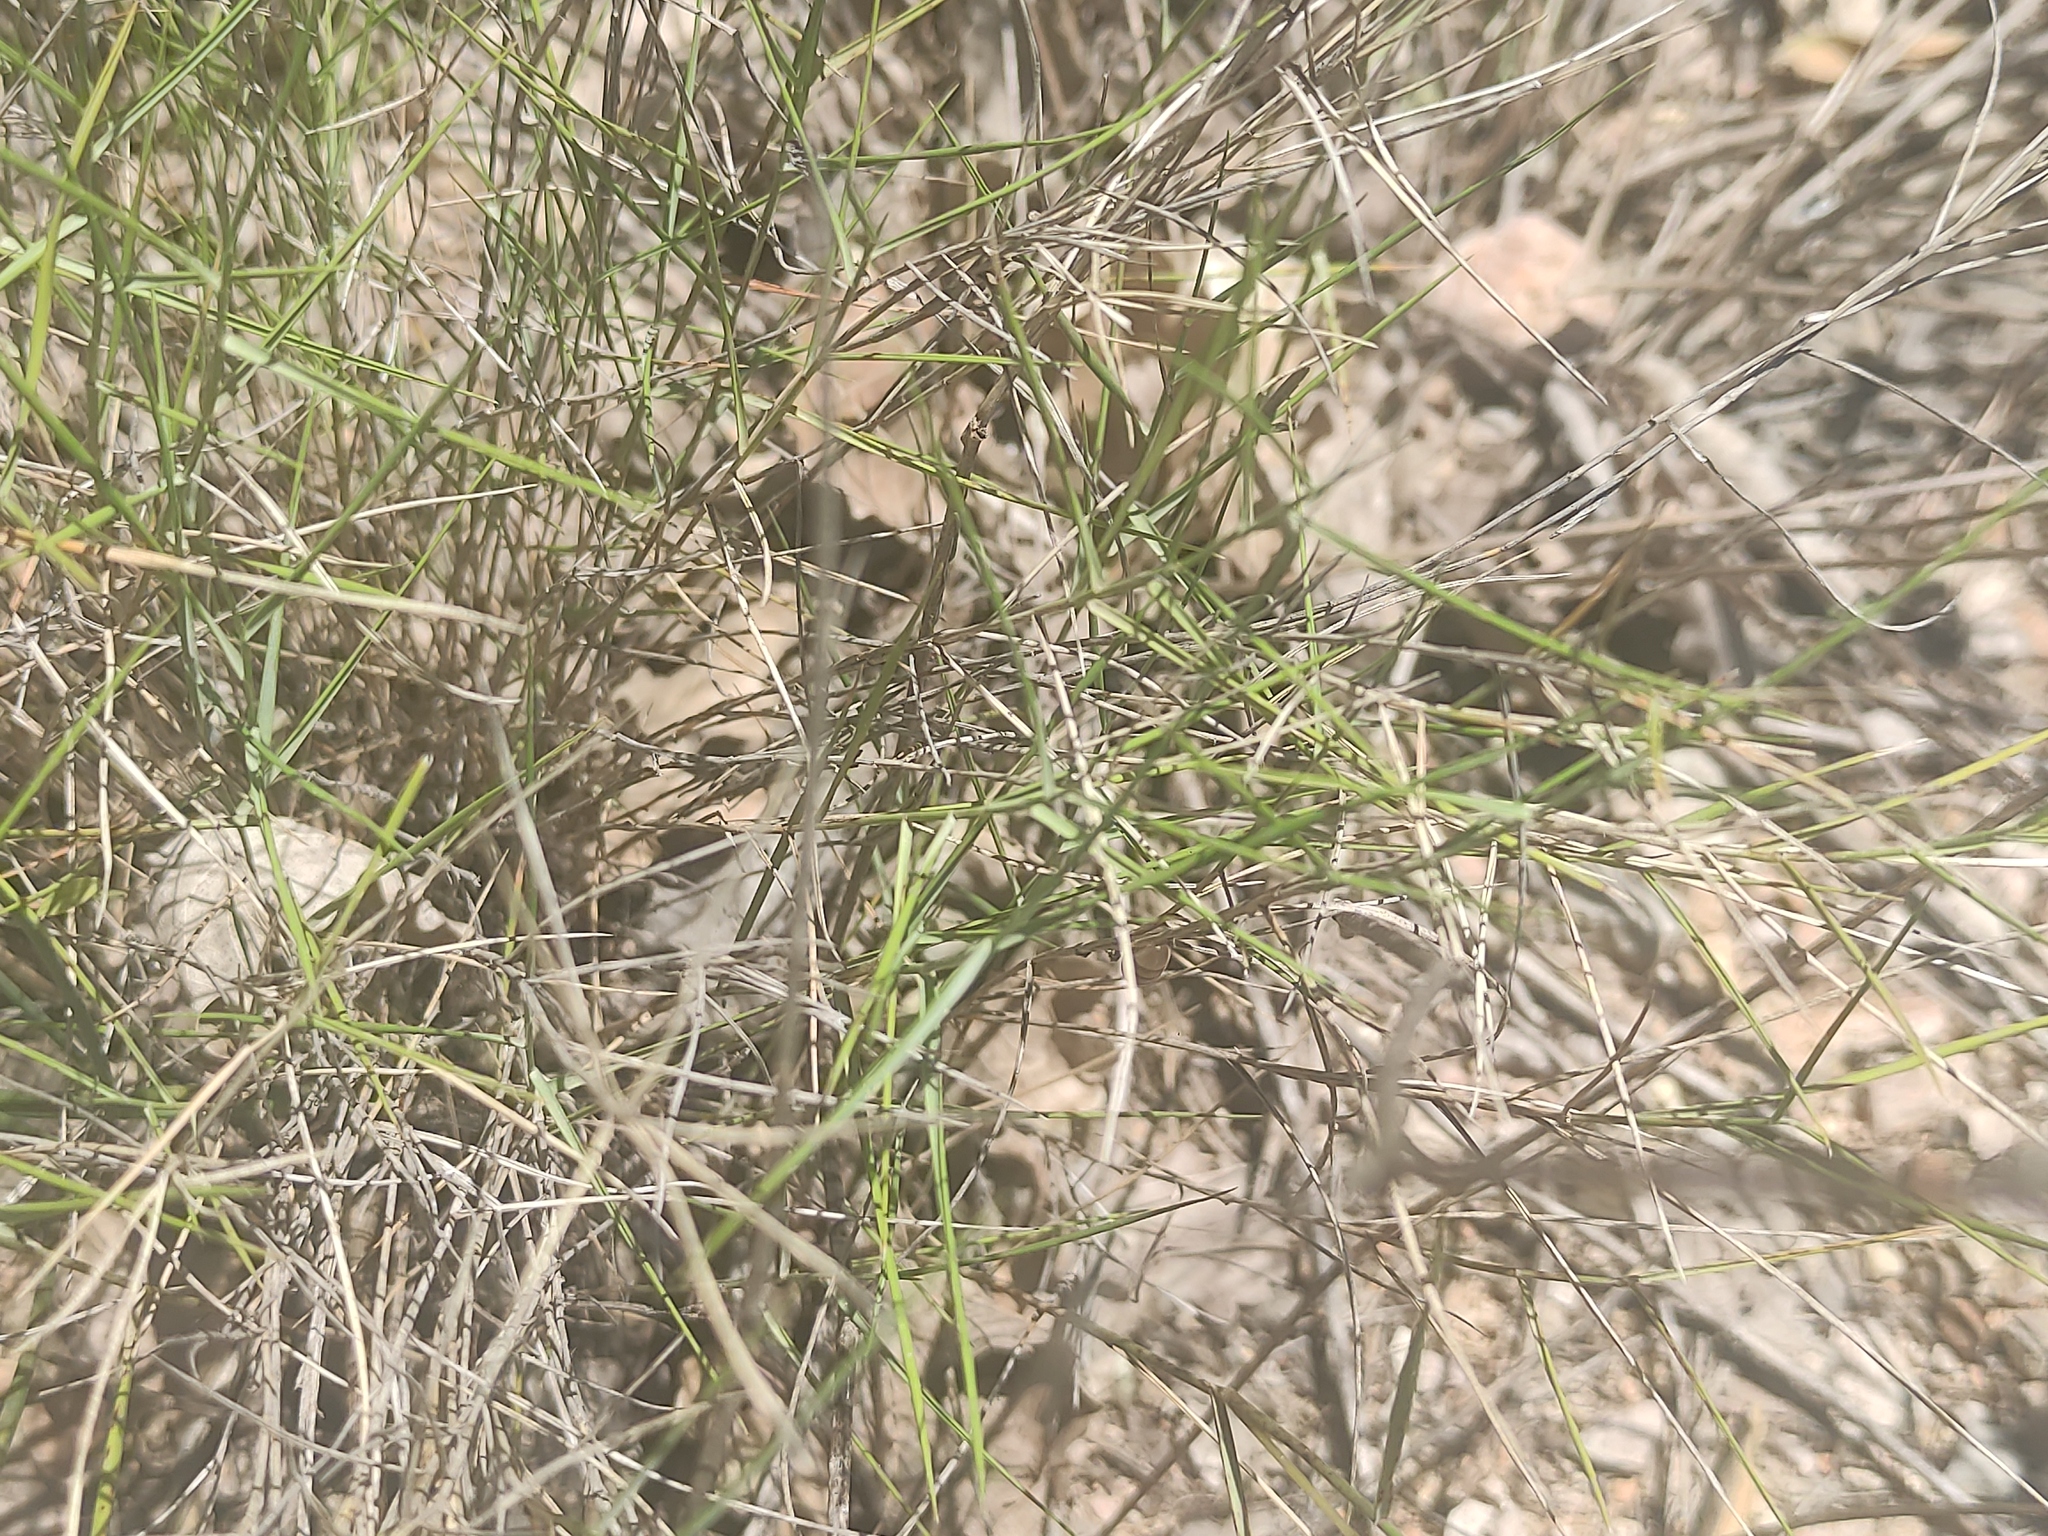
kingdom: Plantae
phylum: Tracheophyta
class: Liliopsida
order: Poales
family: Poaceae
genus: Brachypodium
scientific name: Brachypodium retusum
